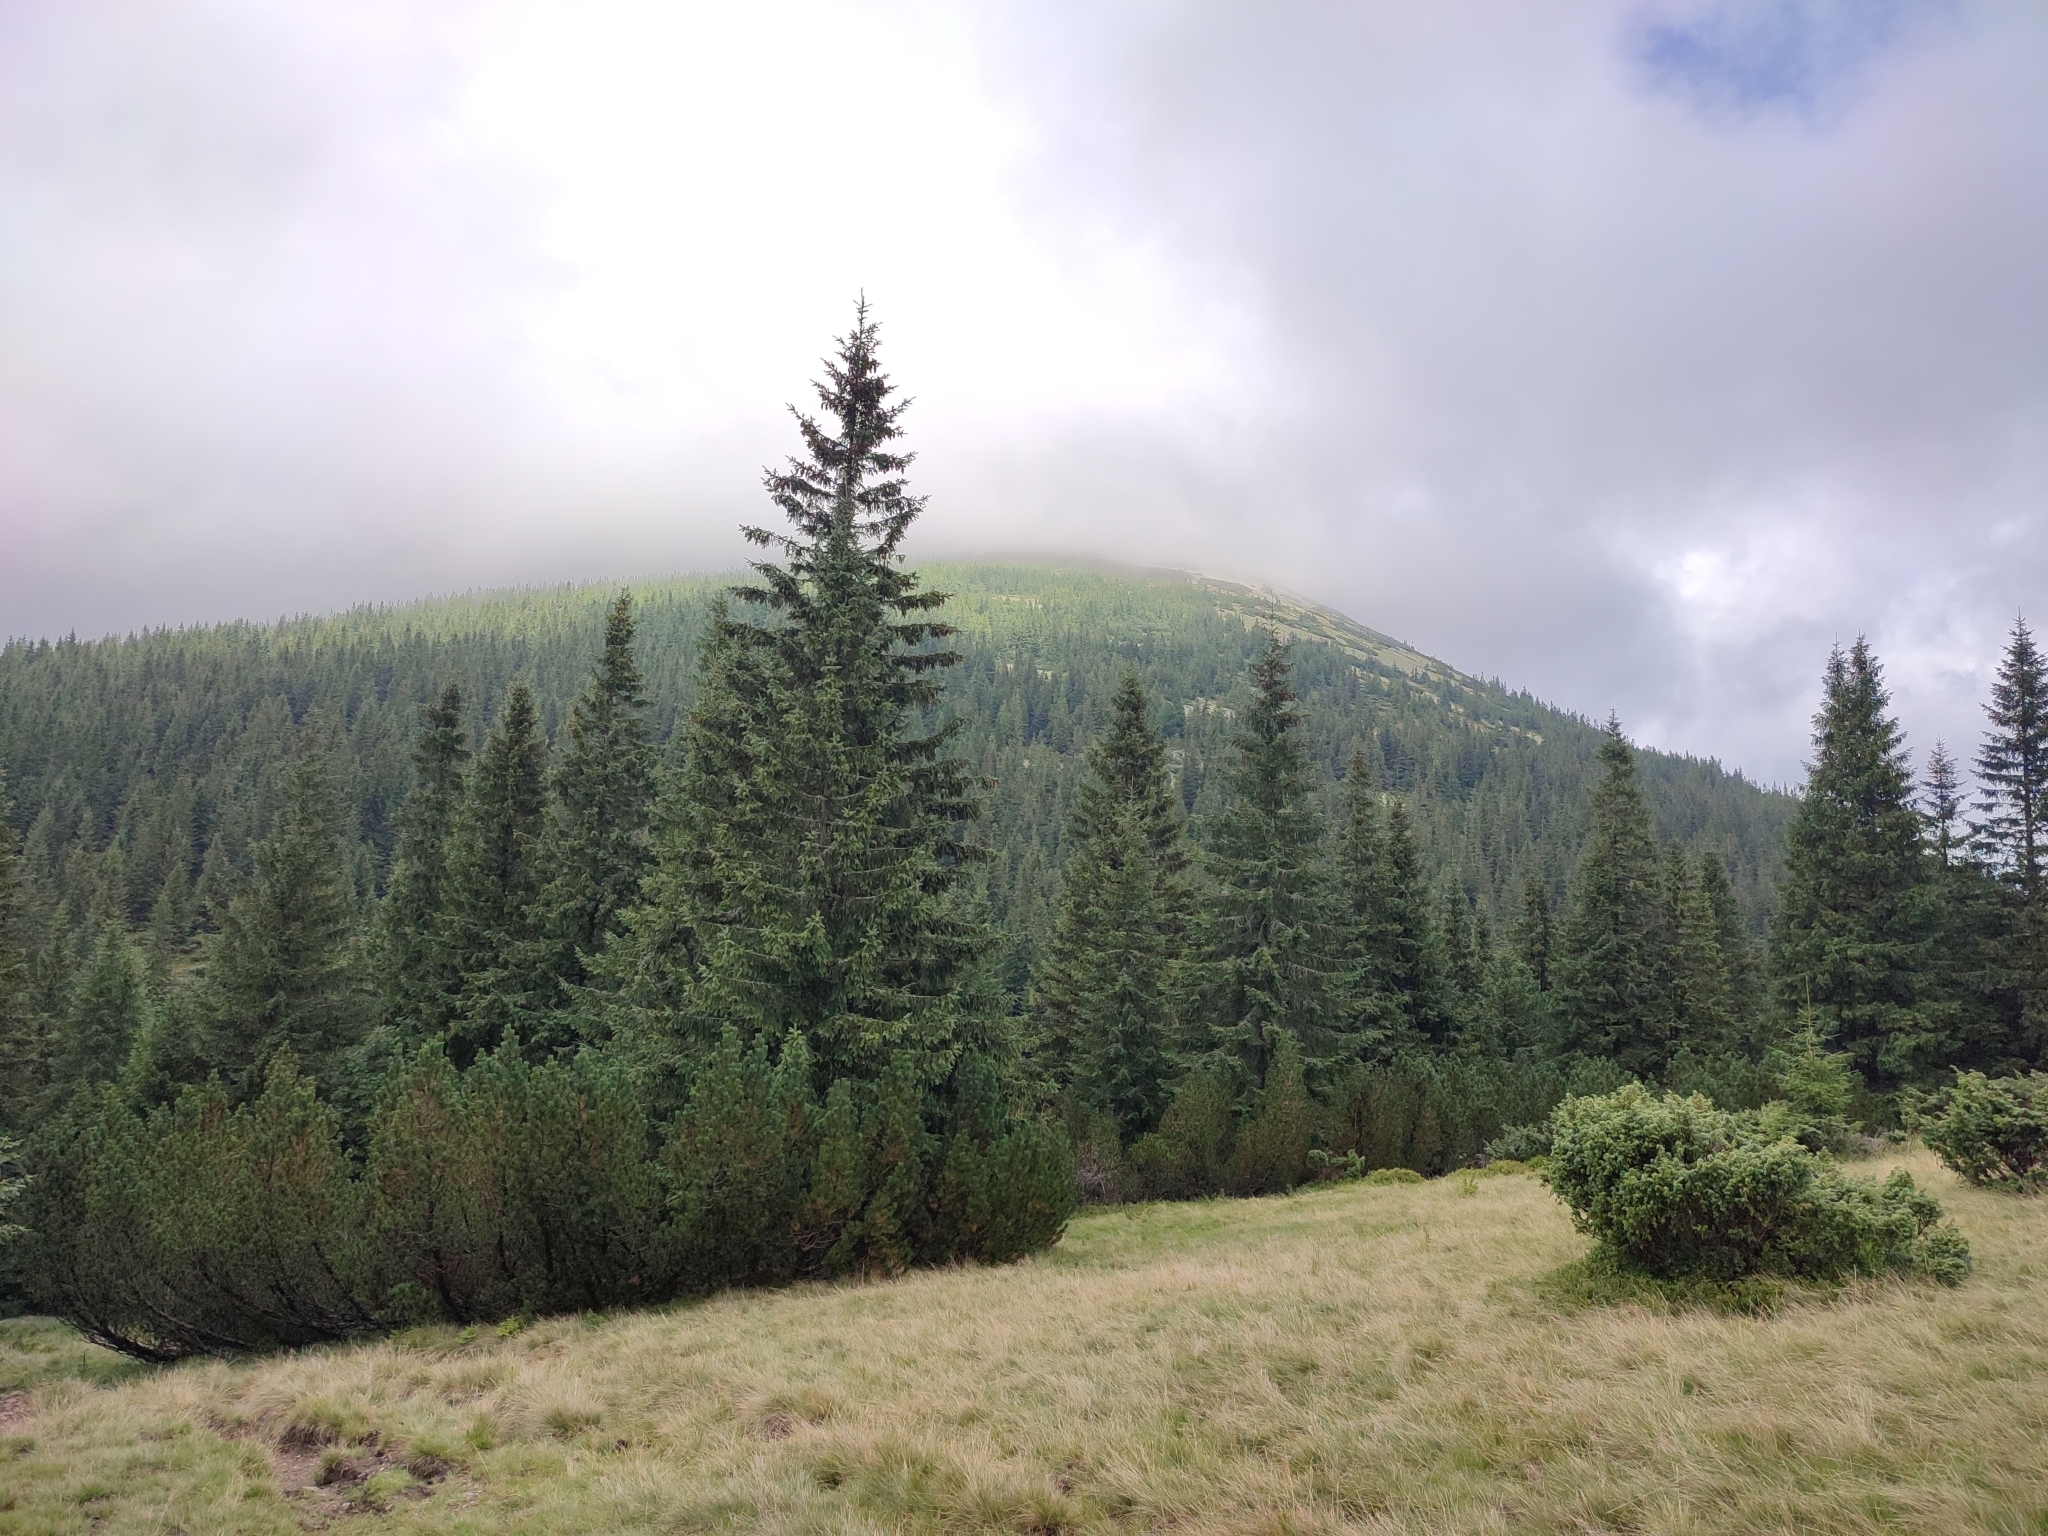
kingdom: Plantae
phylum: Tracheophyta
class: Pinopsida
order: Pinales
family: Pinaceae
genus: Picea
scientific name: Picea abies
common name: Norway spruce
